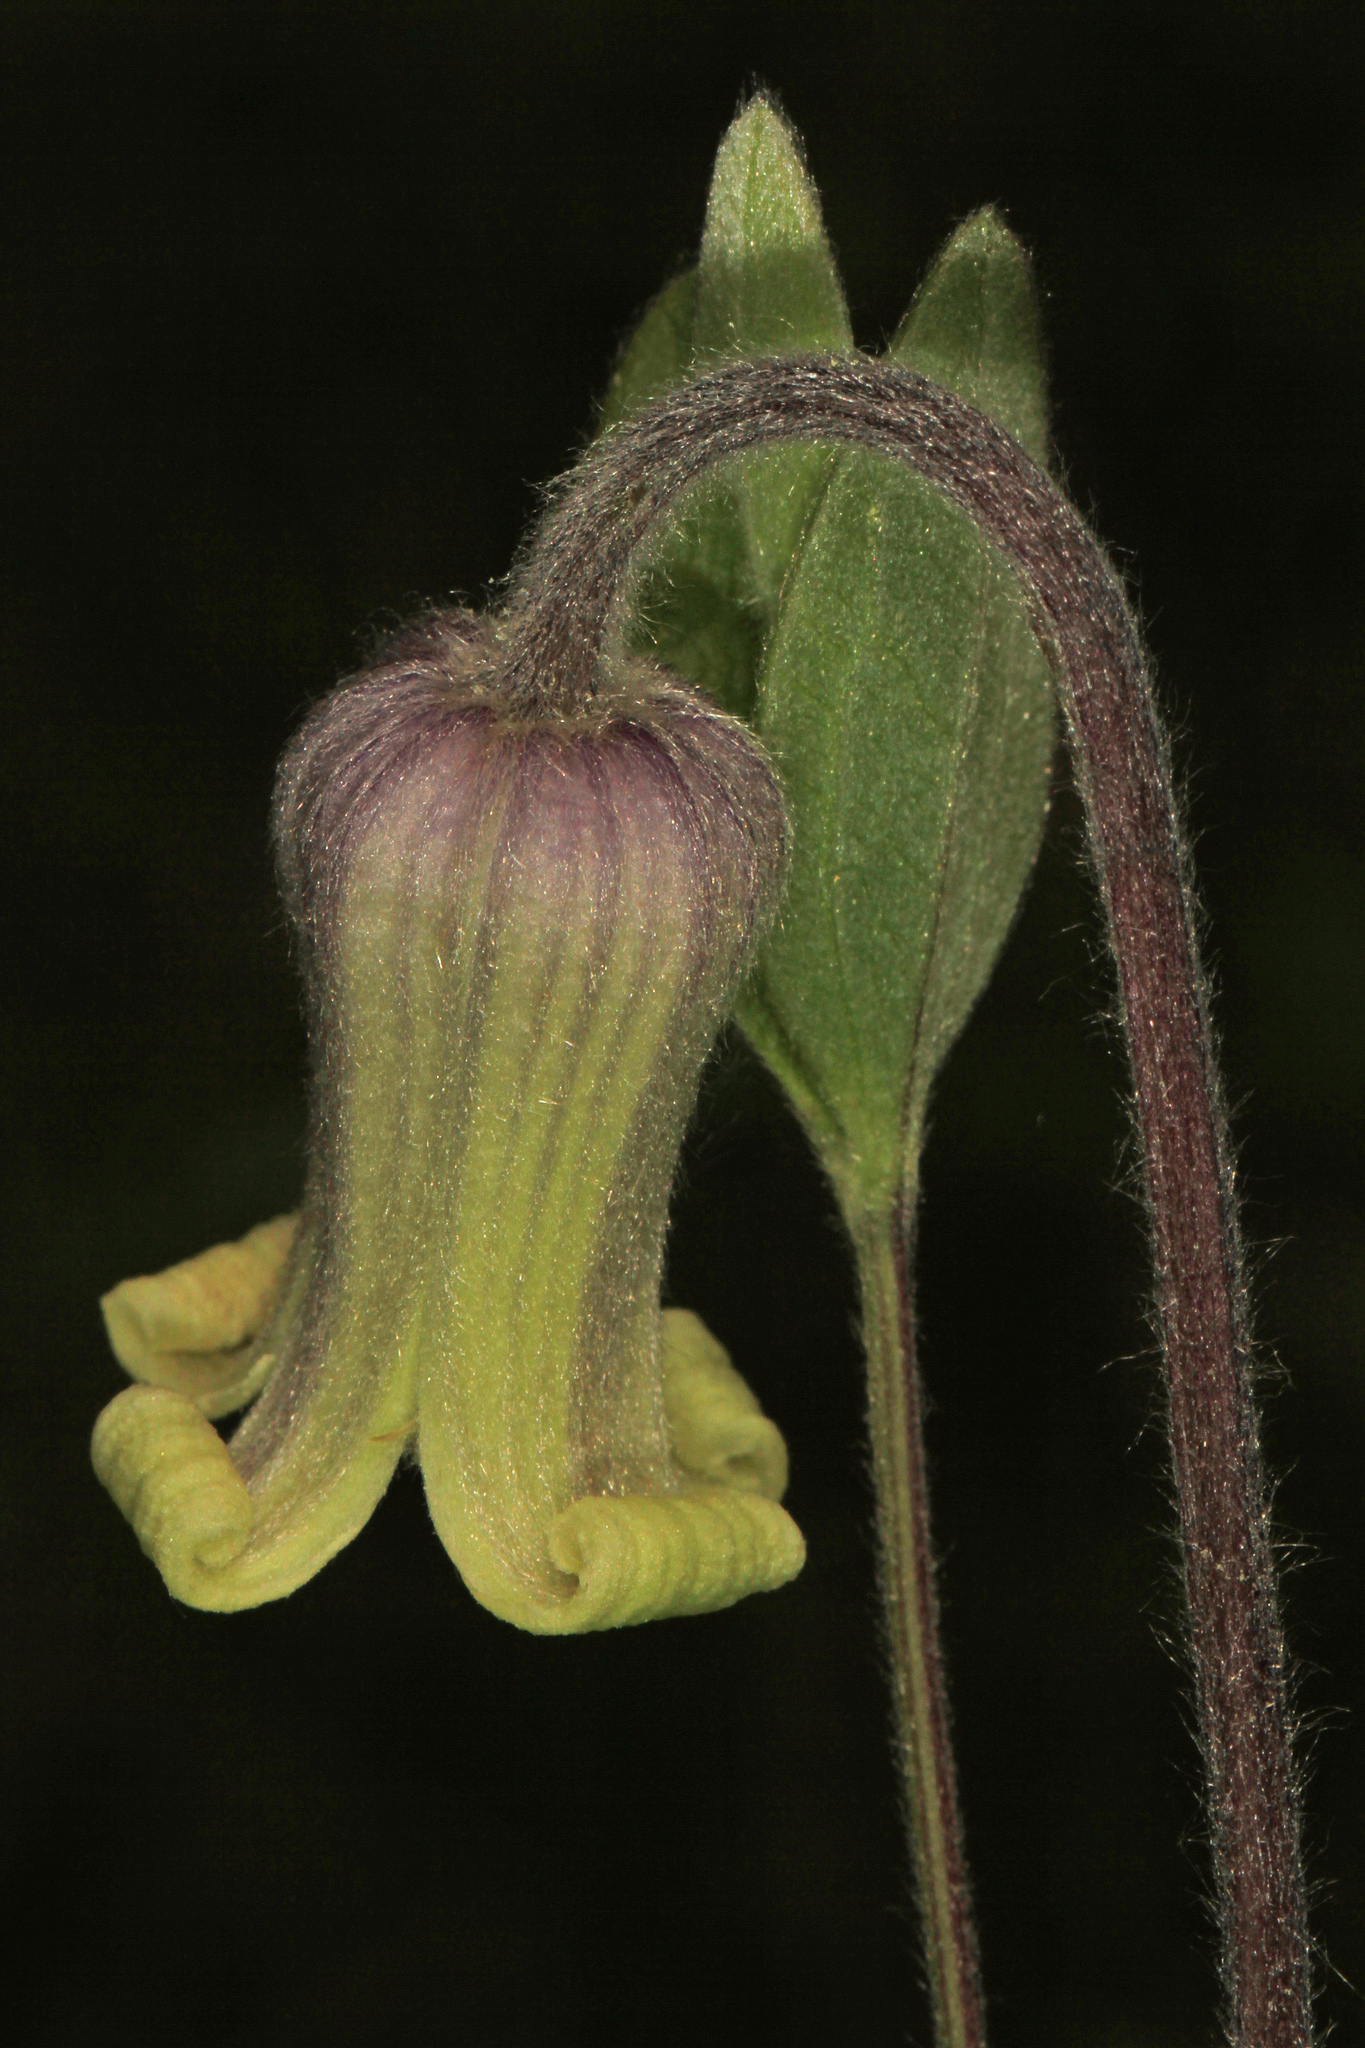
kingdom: Plantae
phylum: Tracheophyta
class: Magnoliopsida
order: Ranunculales
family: Ranunculaceae
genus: Clematis
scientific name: Clematis ochroleuca
